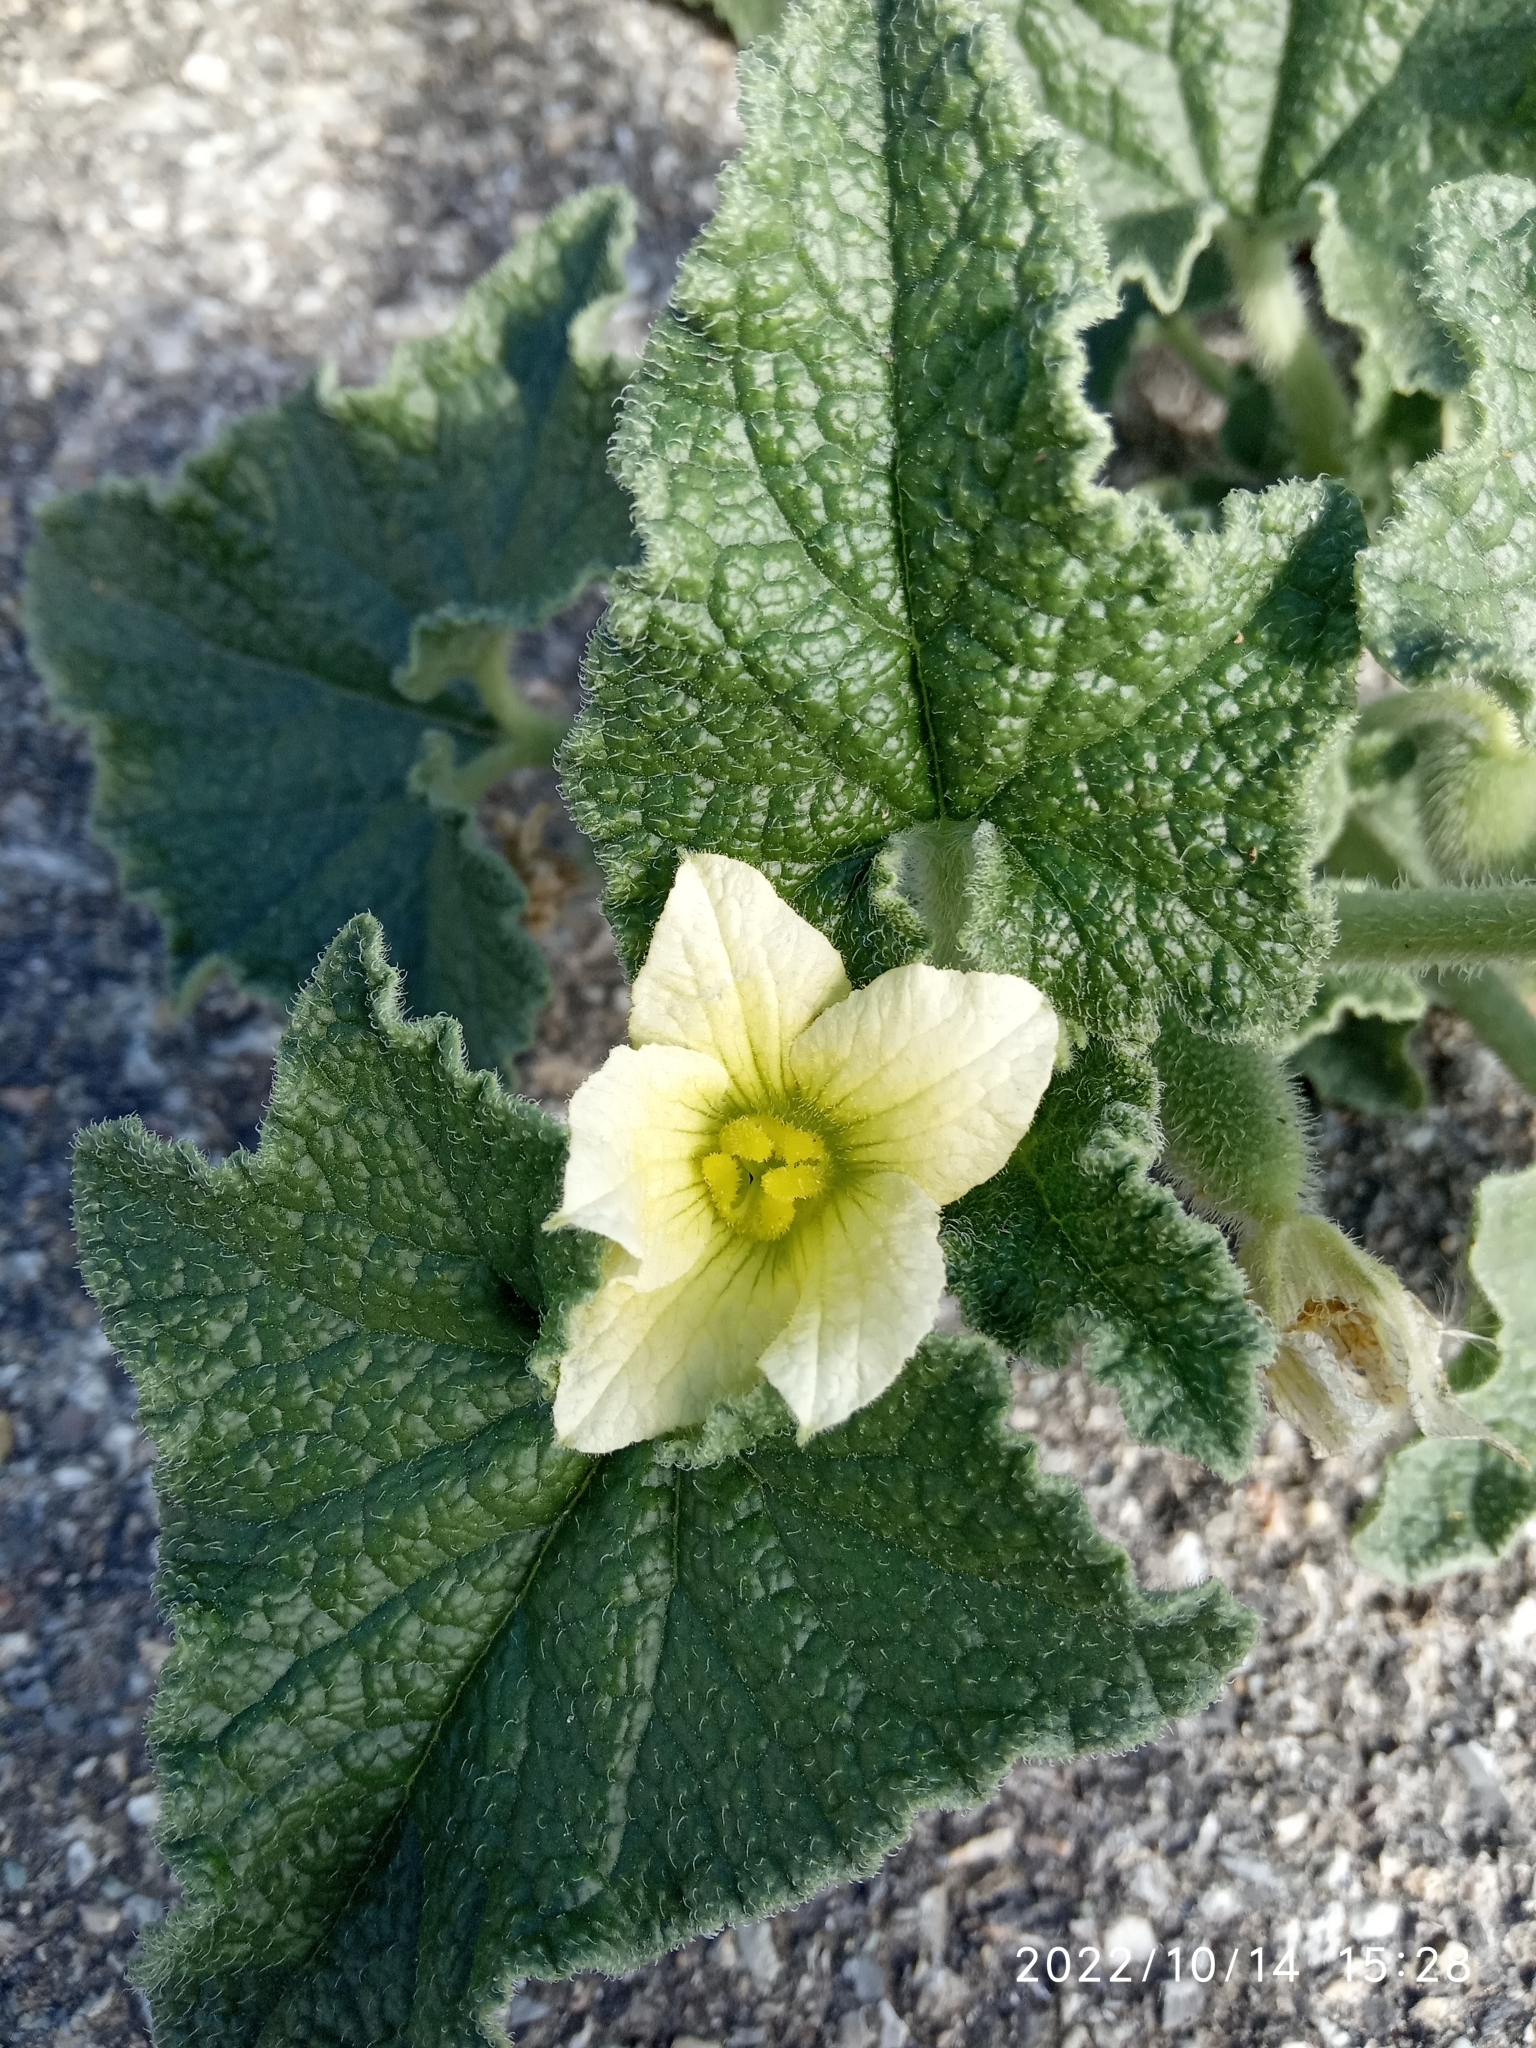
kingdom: Plantae
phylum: Tracheophyta
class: Magnoliopsida
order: Cucurbitales
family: Cucurbitaceae
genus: Ecballium
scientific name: Ecballium elaterium
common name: Squirting cucumber
